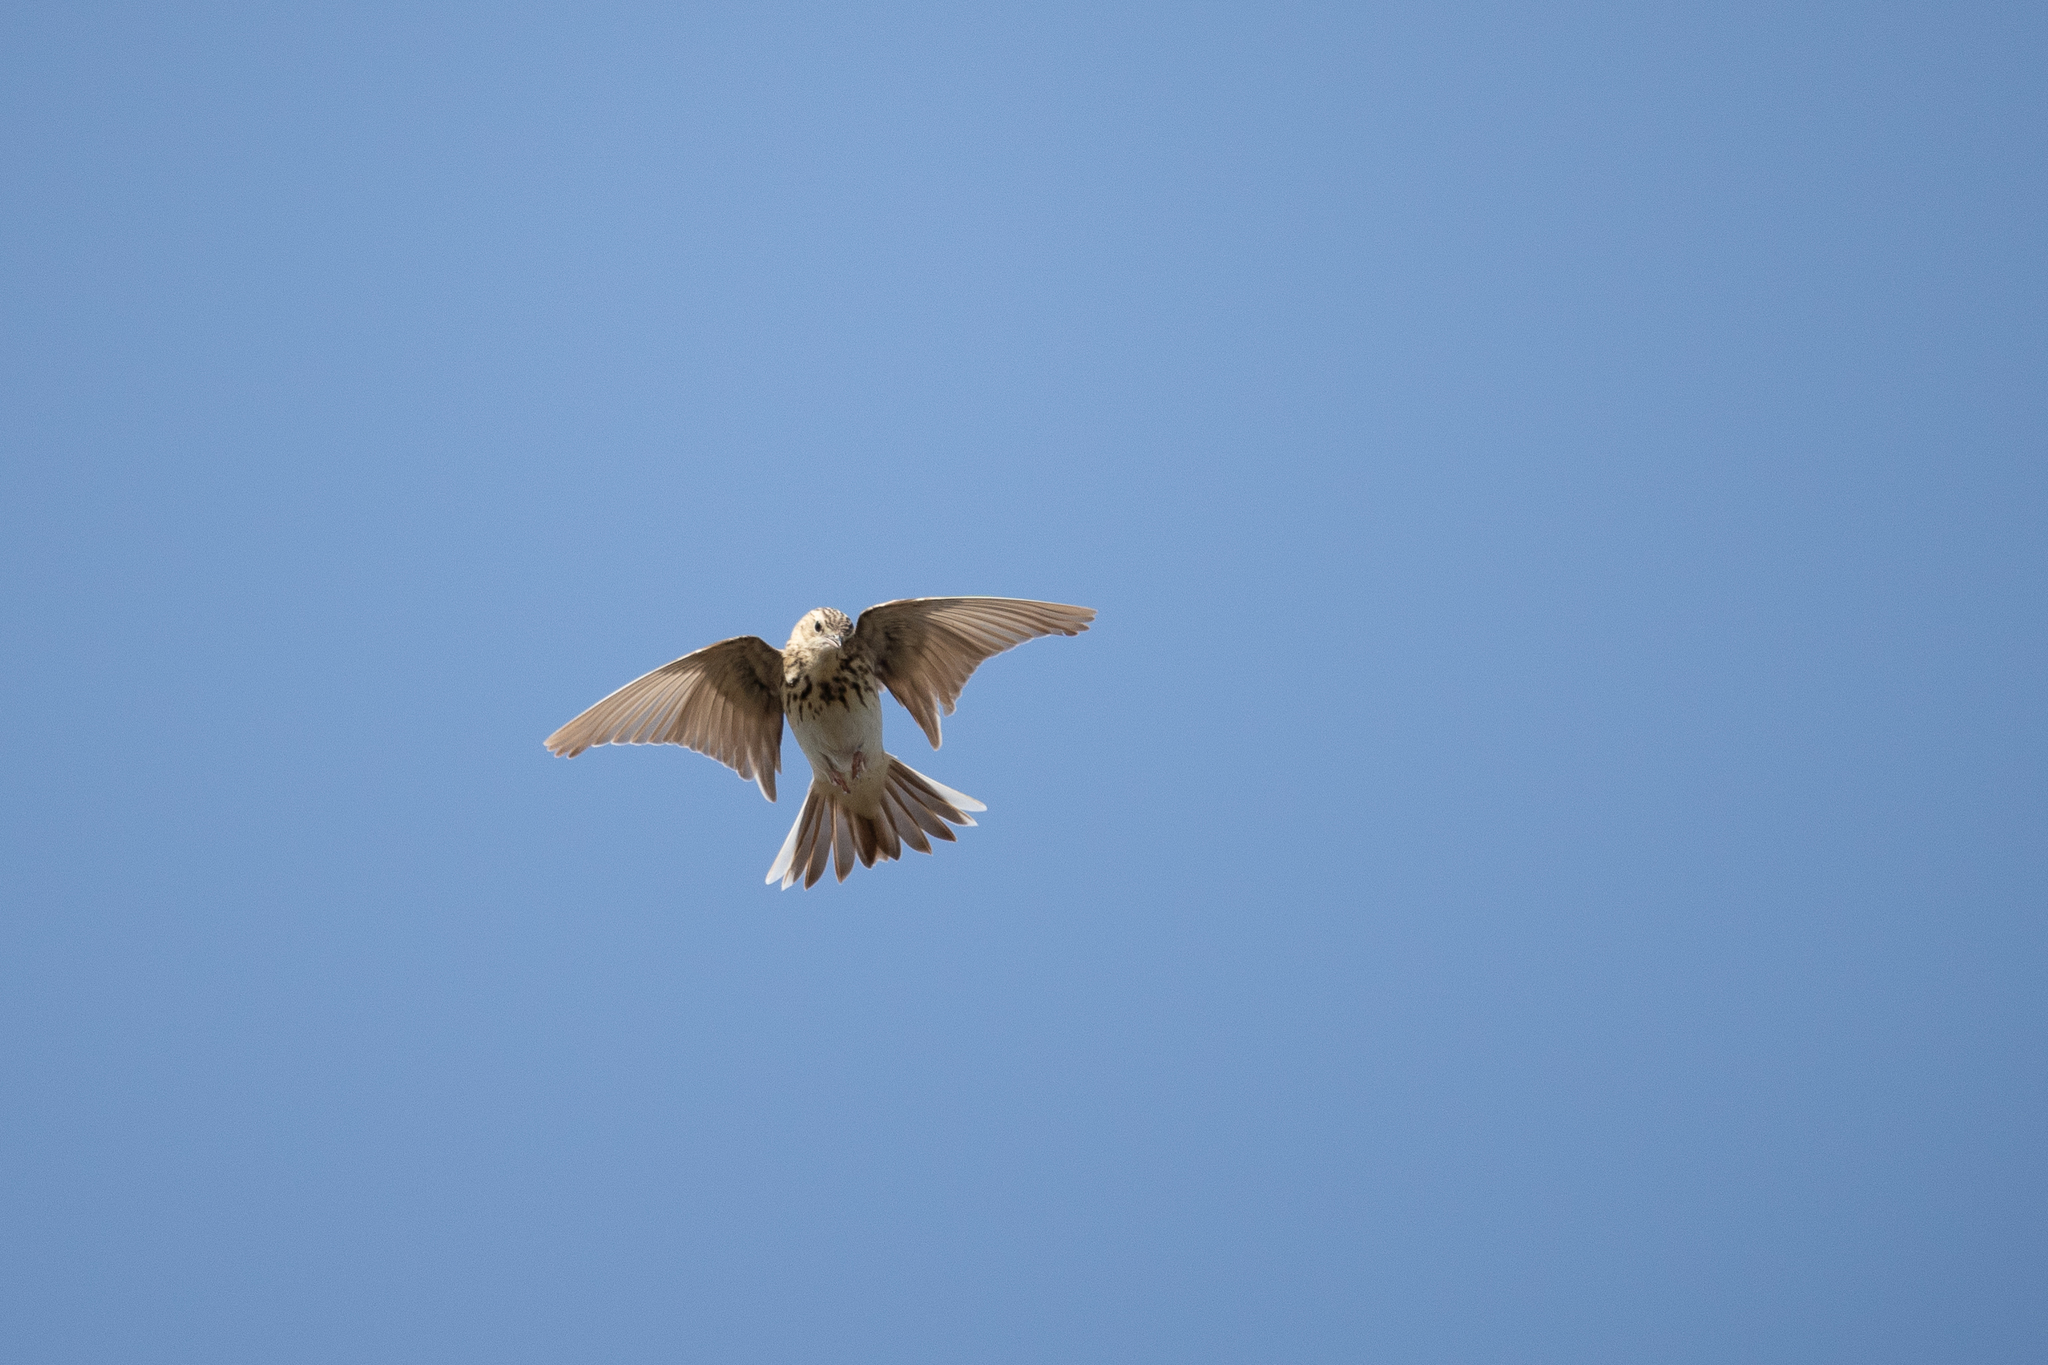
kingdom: Animalia
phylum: Chordata
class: Aves
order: Passeriformes
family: Motacillidae
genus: Anthus
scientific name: Anthus trivialis
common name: Tree pipit
